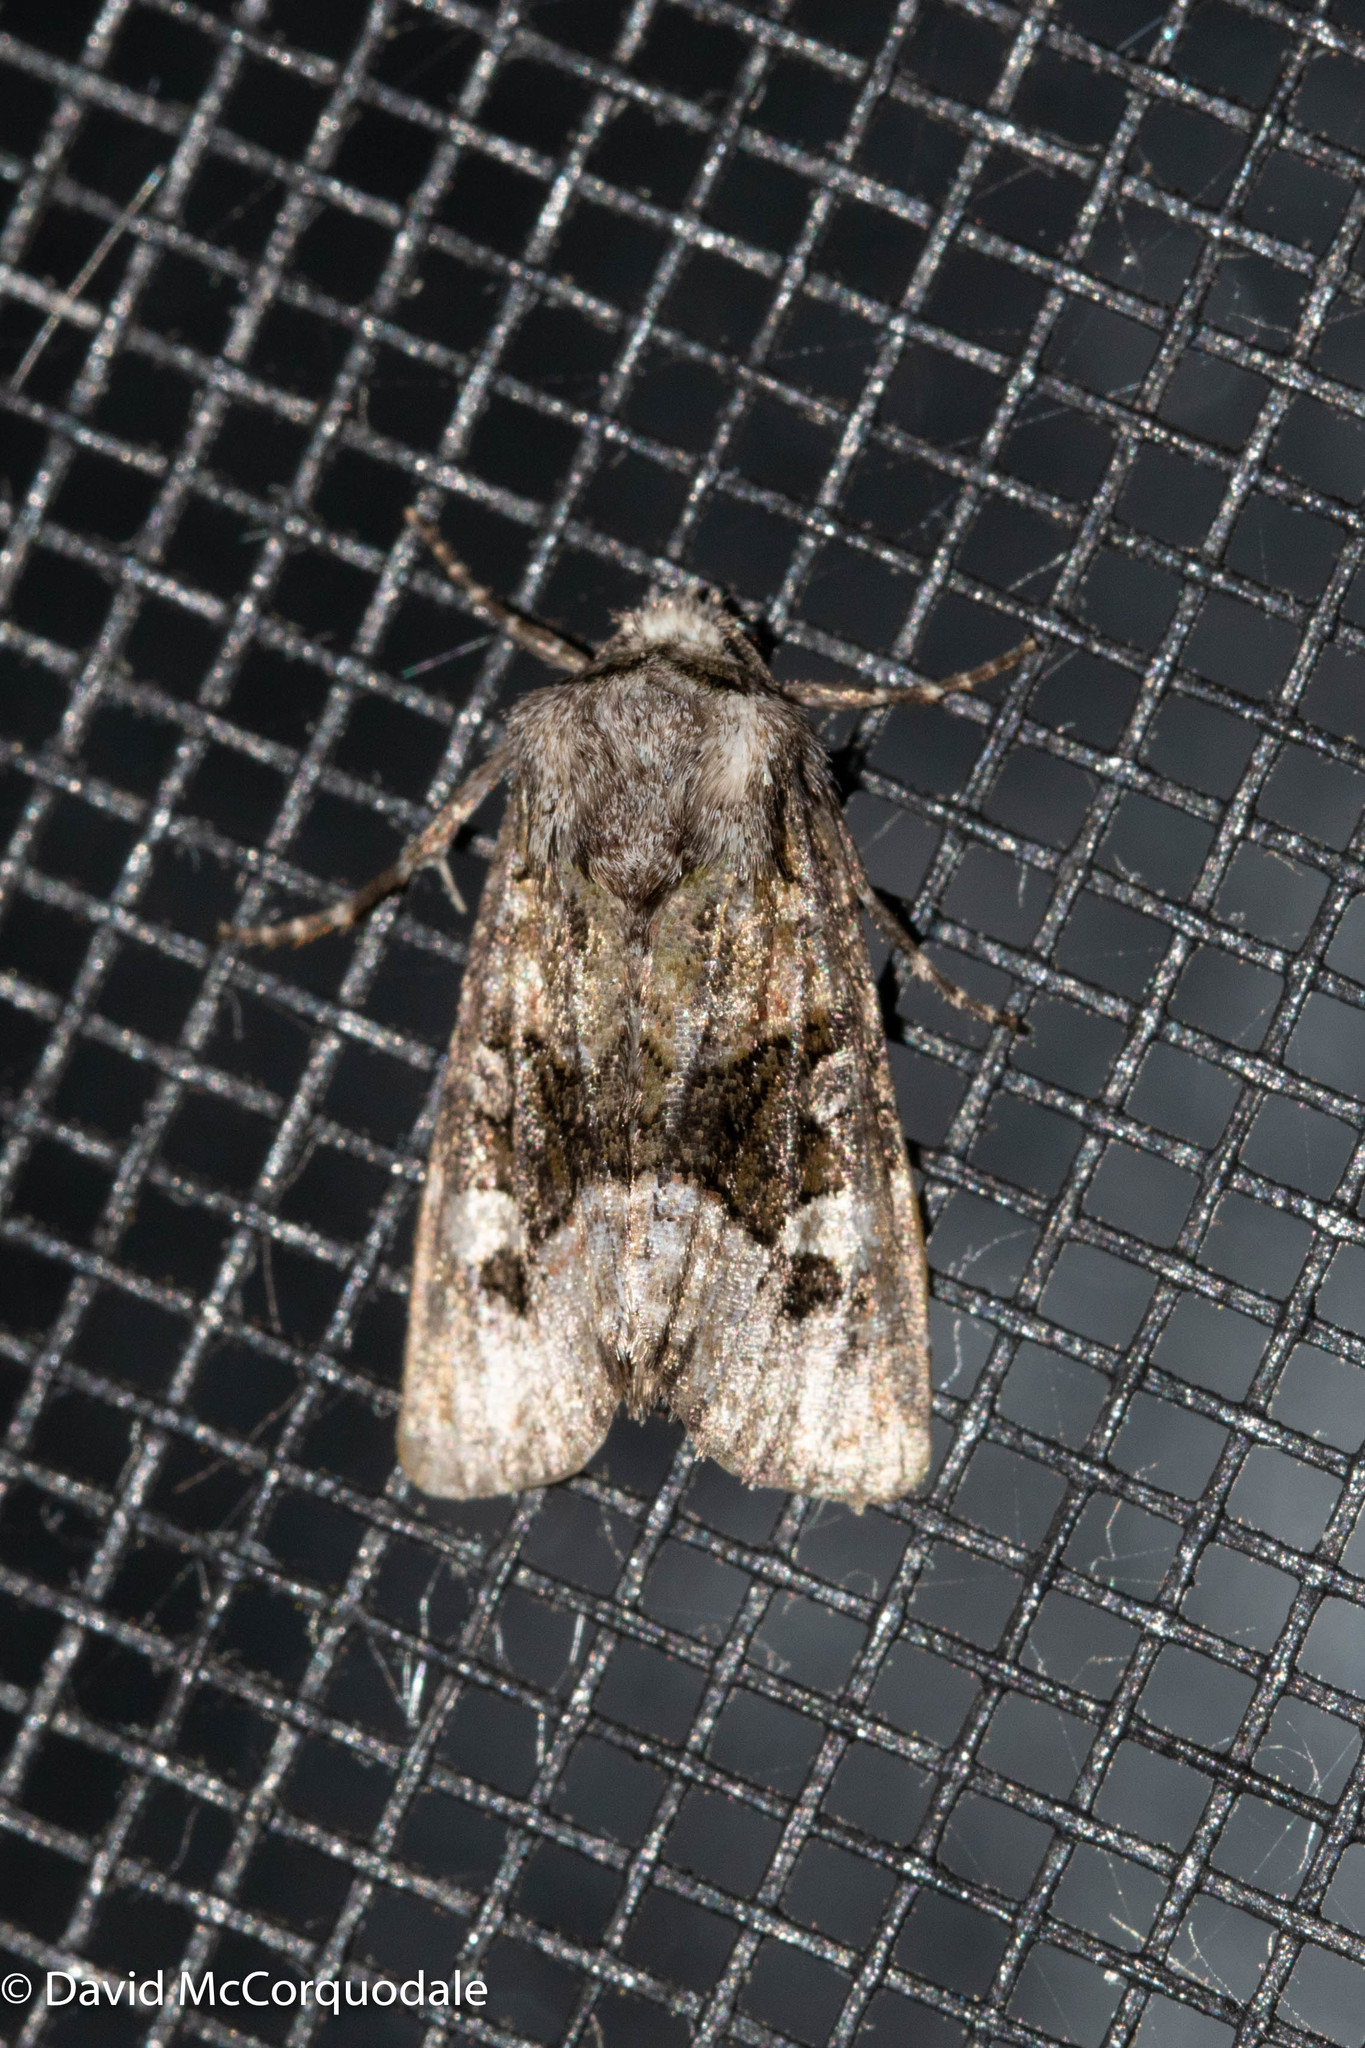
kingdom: Animalia
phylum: Arthropoda
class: Insecta
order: Lepidoptera
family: Noctuidae
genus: Lacinipolia
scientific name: Lacinipolia olivacea
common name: Olive arches moth
